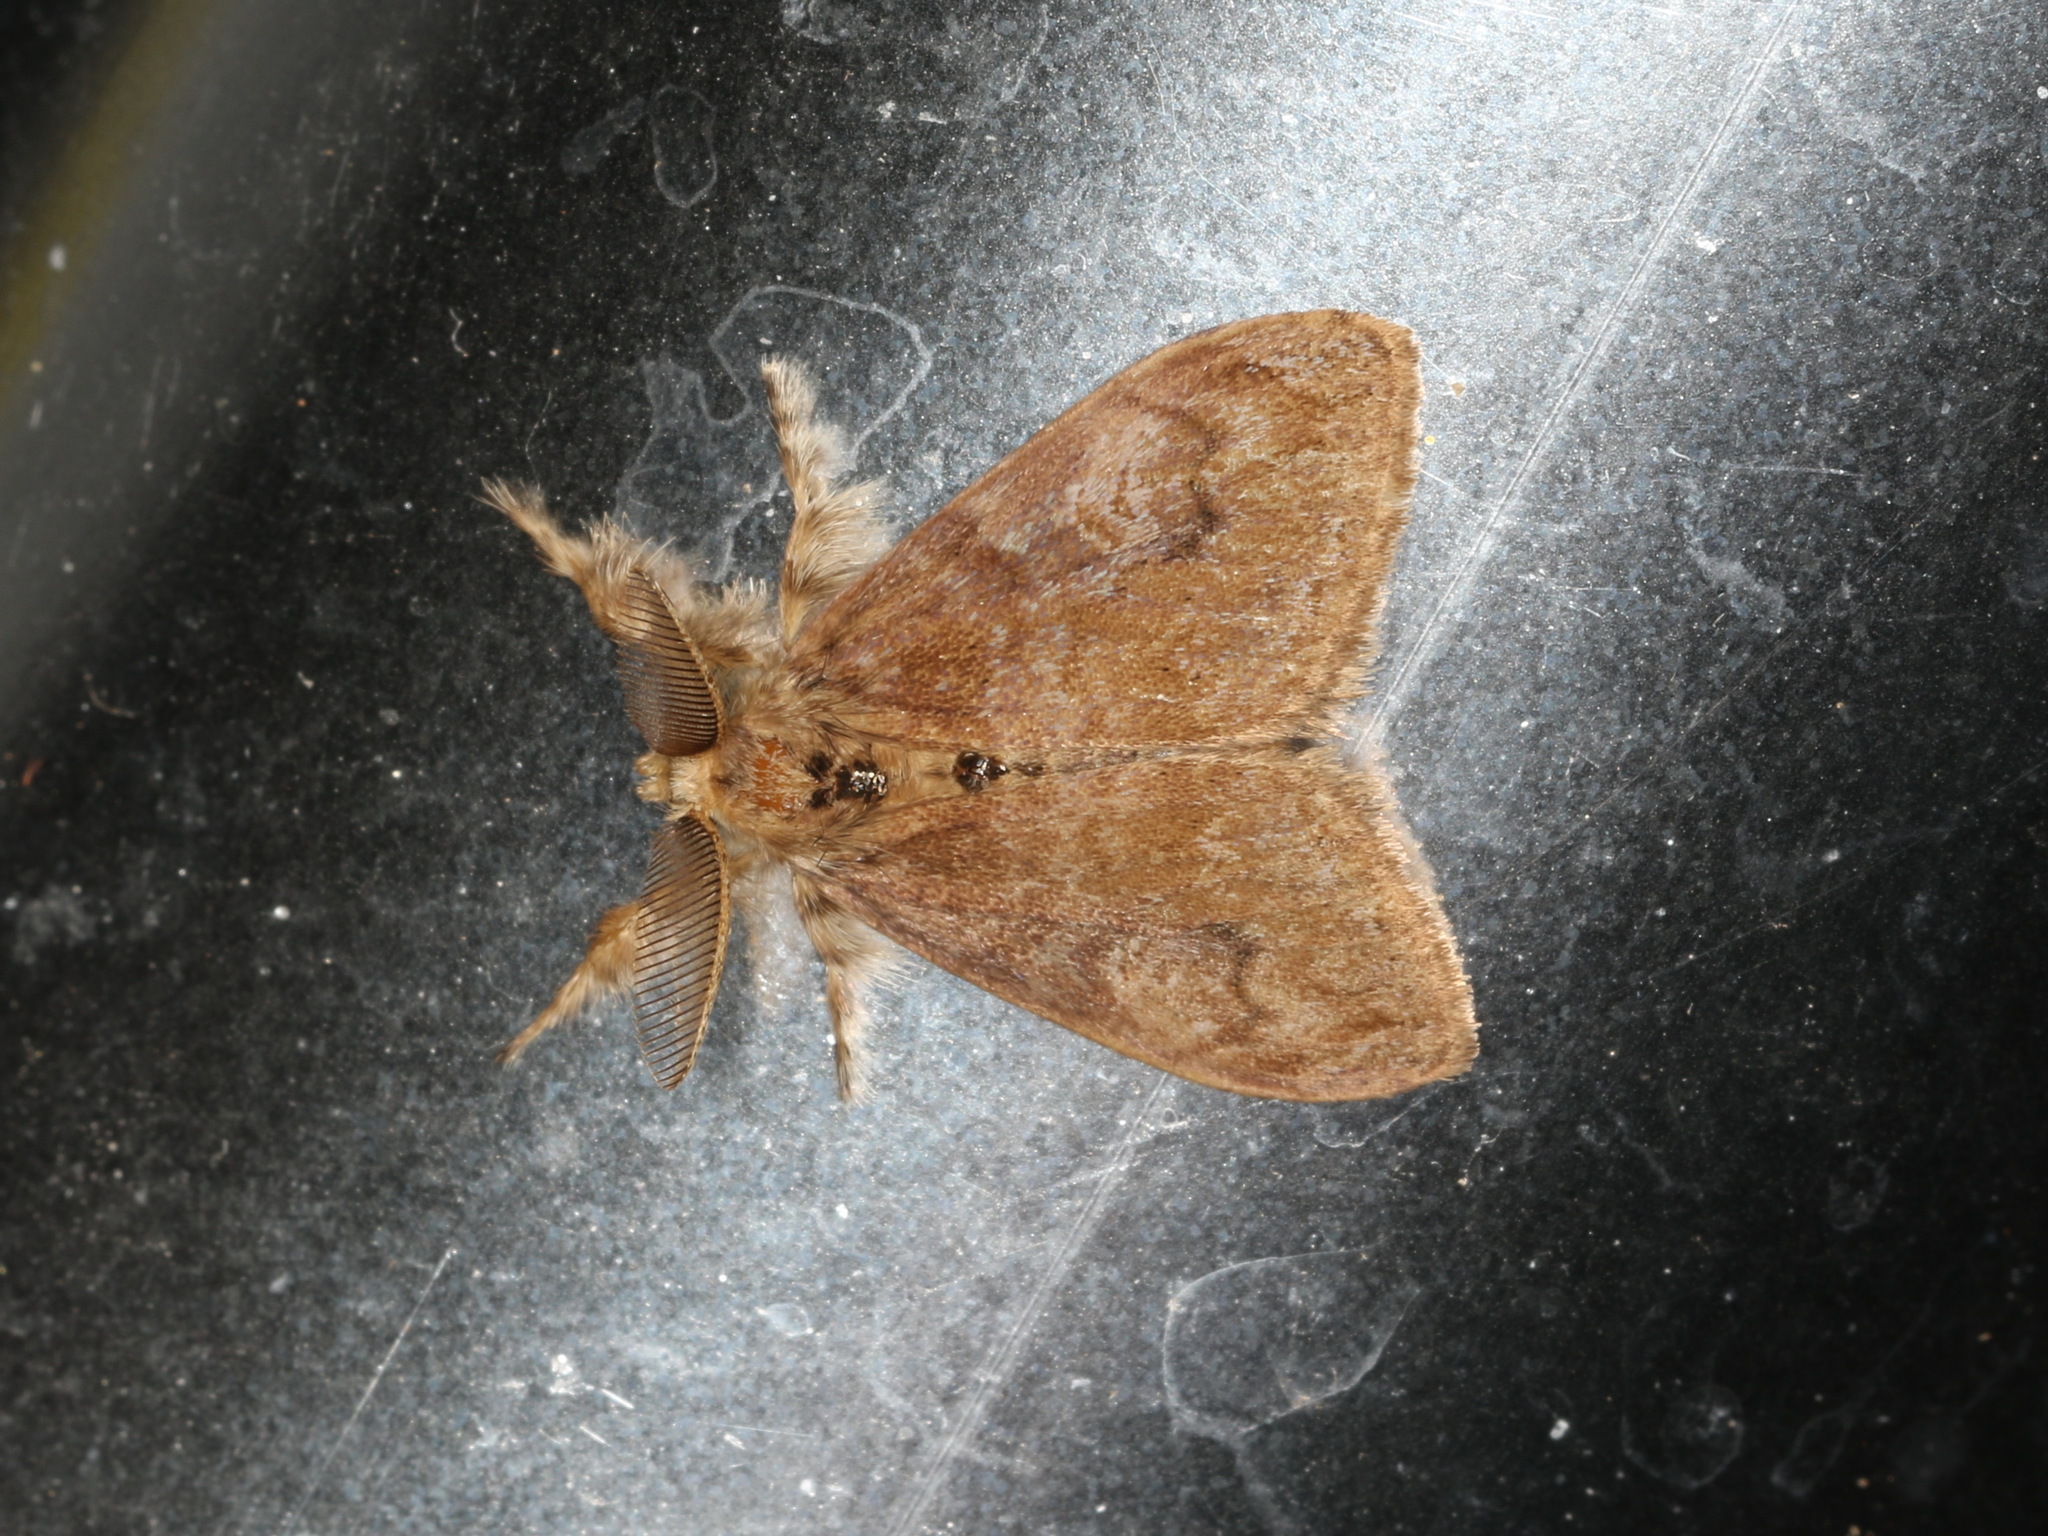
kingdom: Animalia
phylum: Arthropoda
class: Insecta
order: Lepidoptera
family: Erebidae
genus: Orgyia
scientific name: Orgyia papuana
